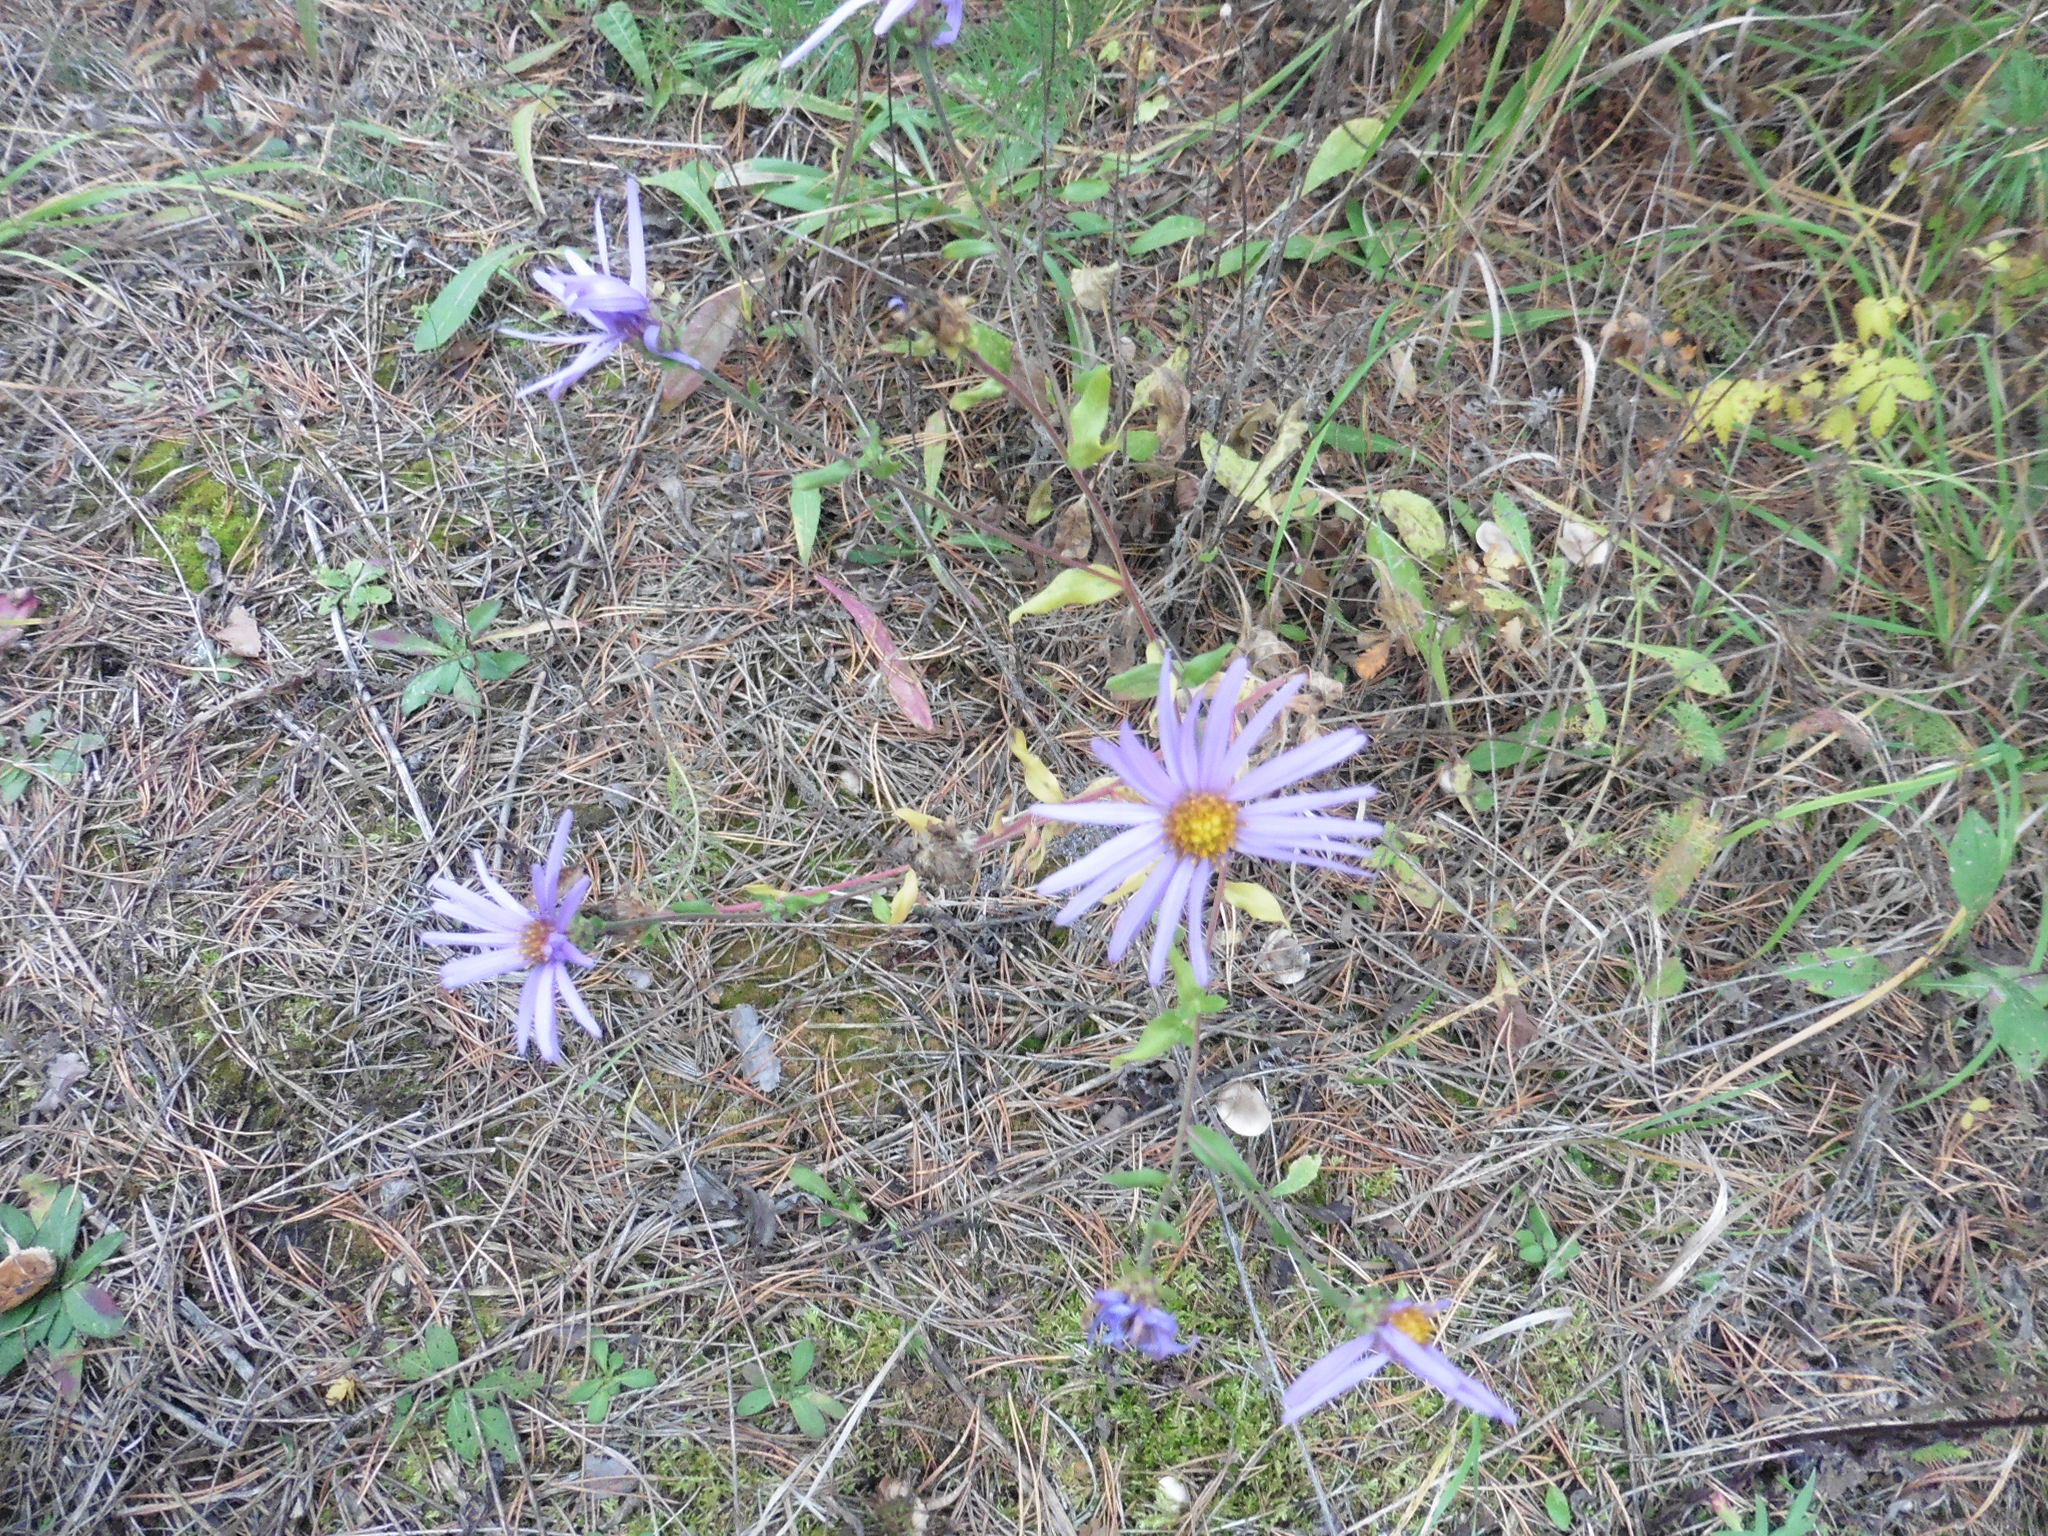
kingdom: Plantae
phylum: Tracheophyta
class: Magnoliopsida
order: Asterales
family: Asteraceae
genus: Aster
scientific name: Aster amellus
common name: European michaelmas daisy
